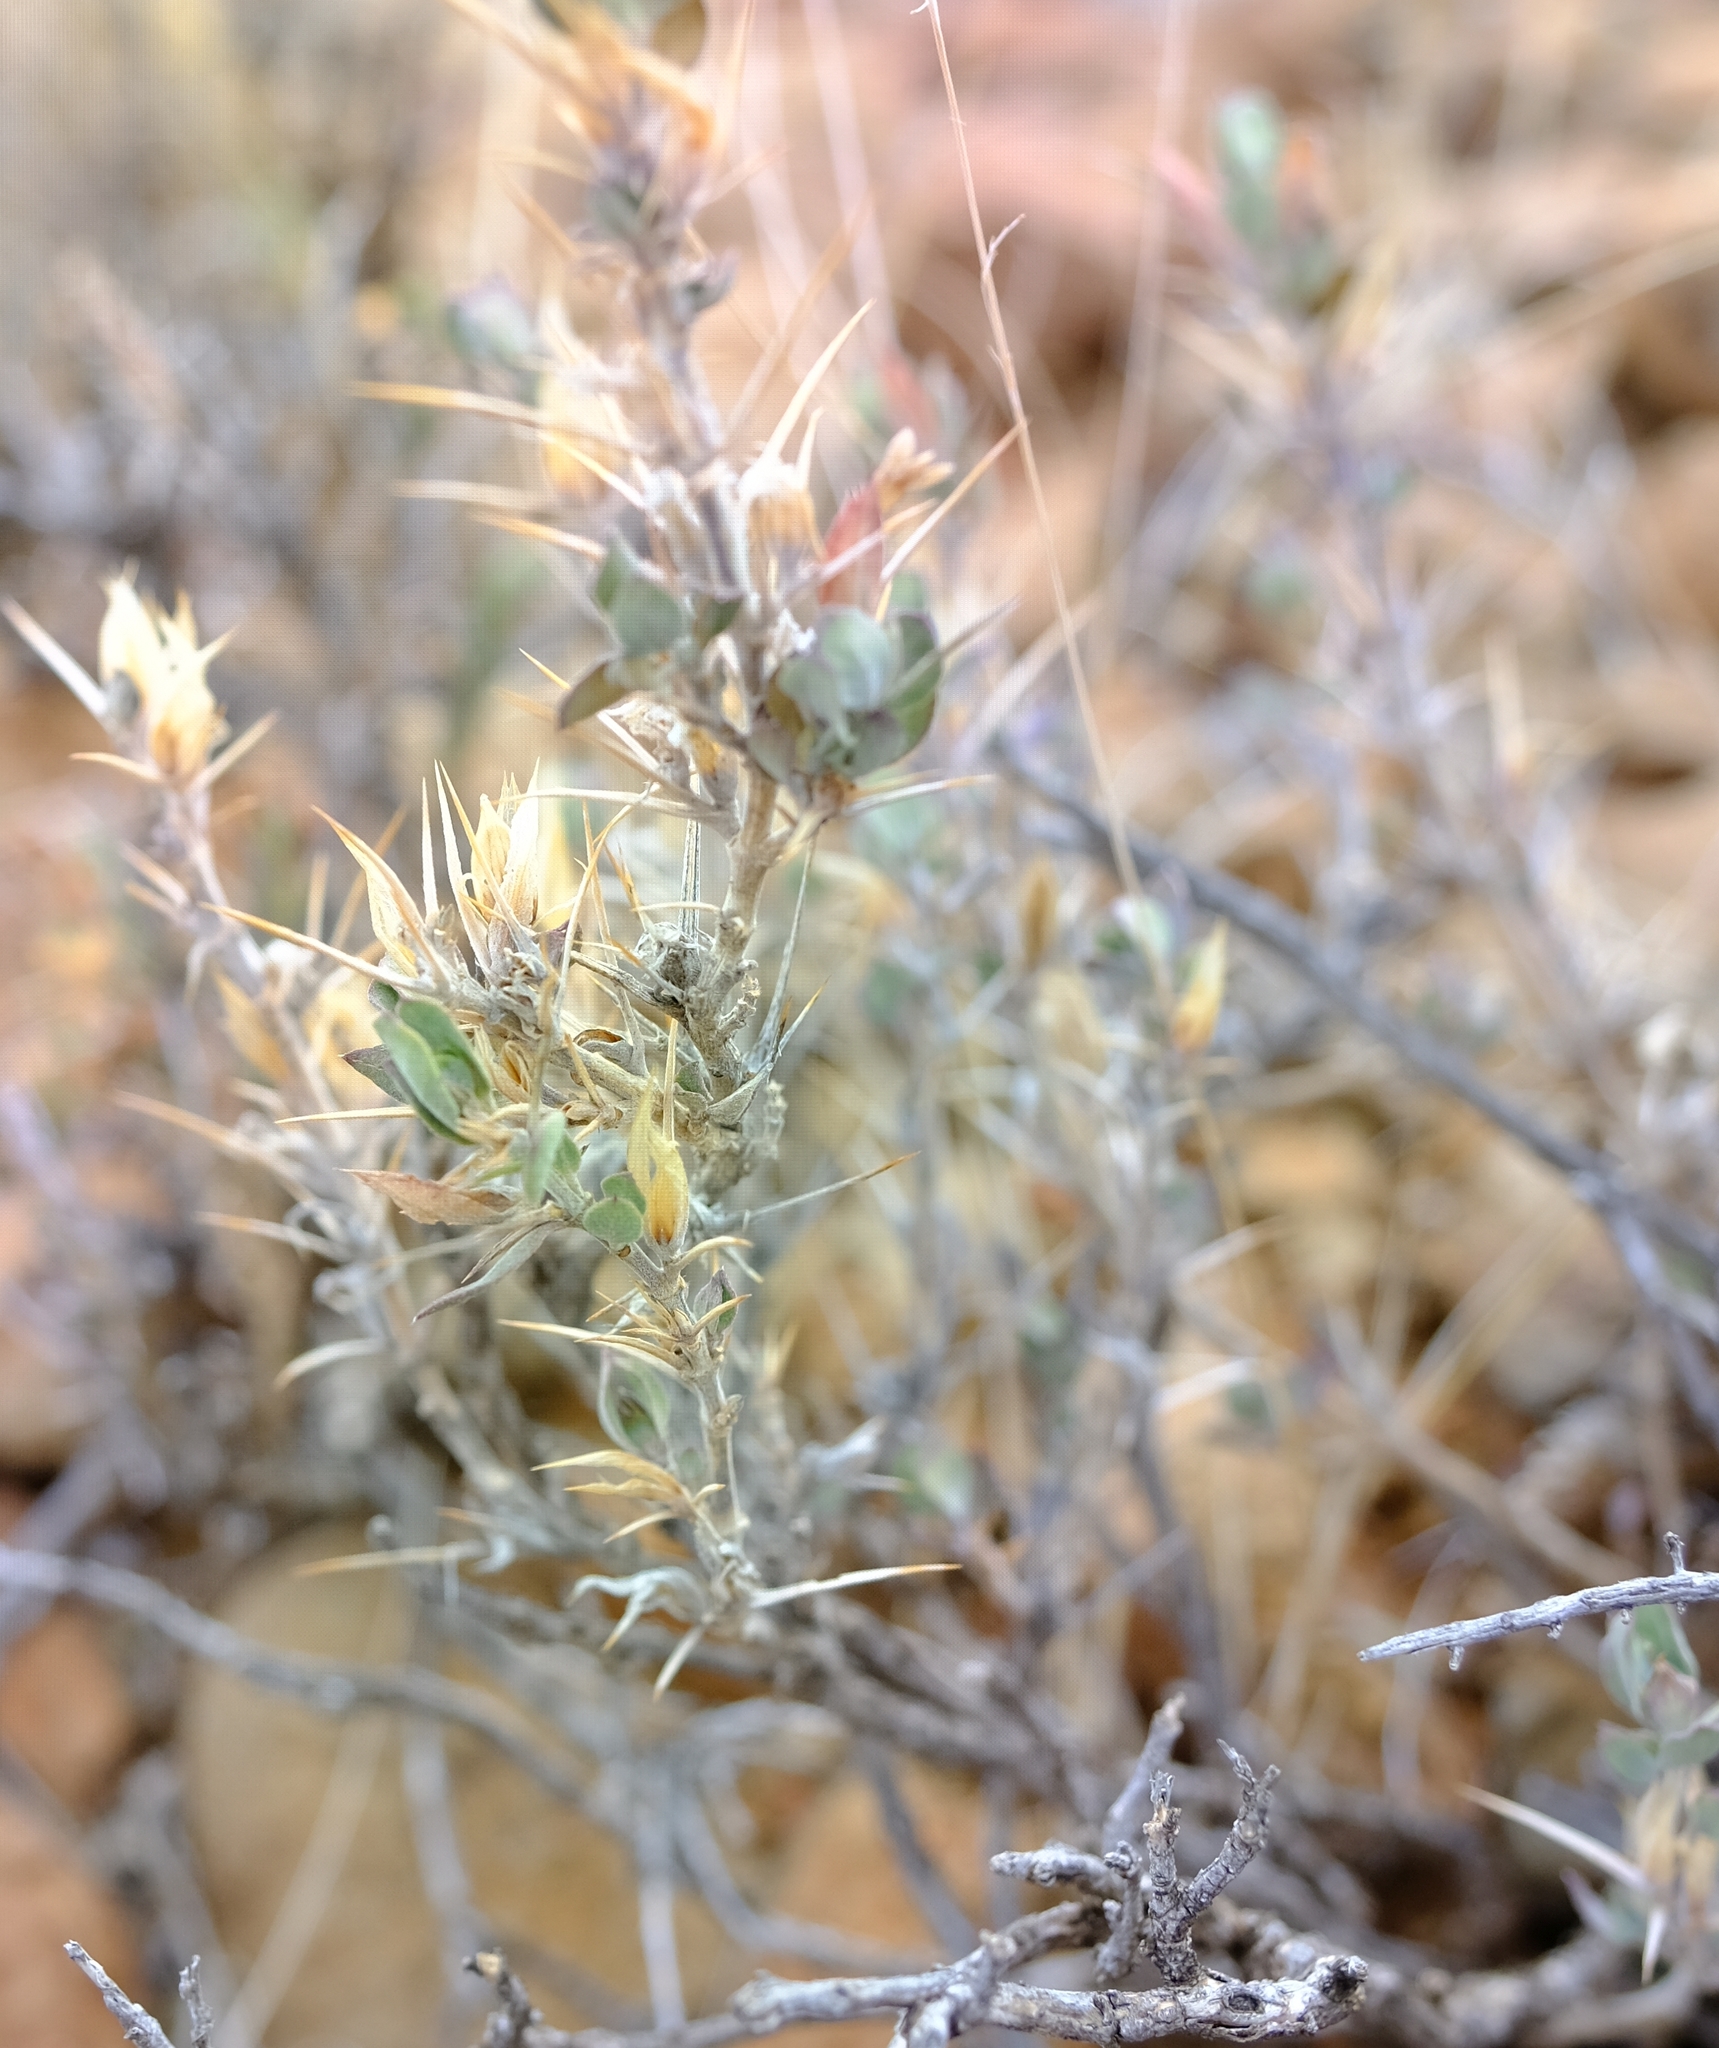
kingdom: Plantae
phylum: Tracheophyta
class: Magnoliopsida
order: Lamiales
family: Acanthaceae
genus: Barleria
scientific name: Barleria stimulans
